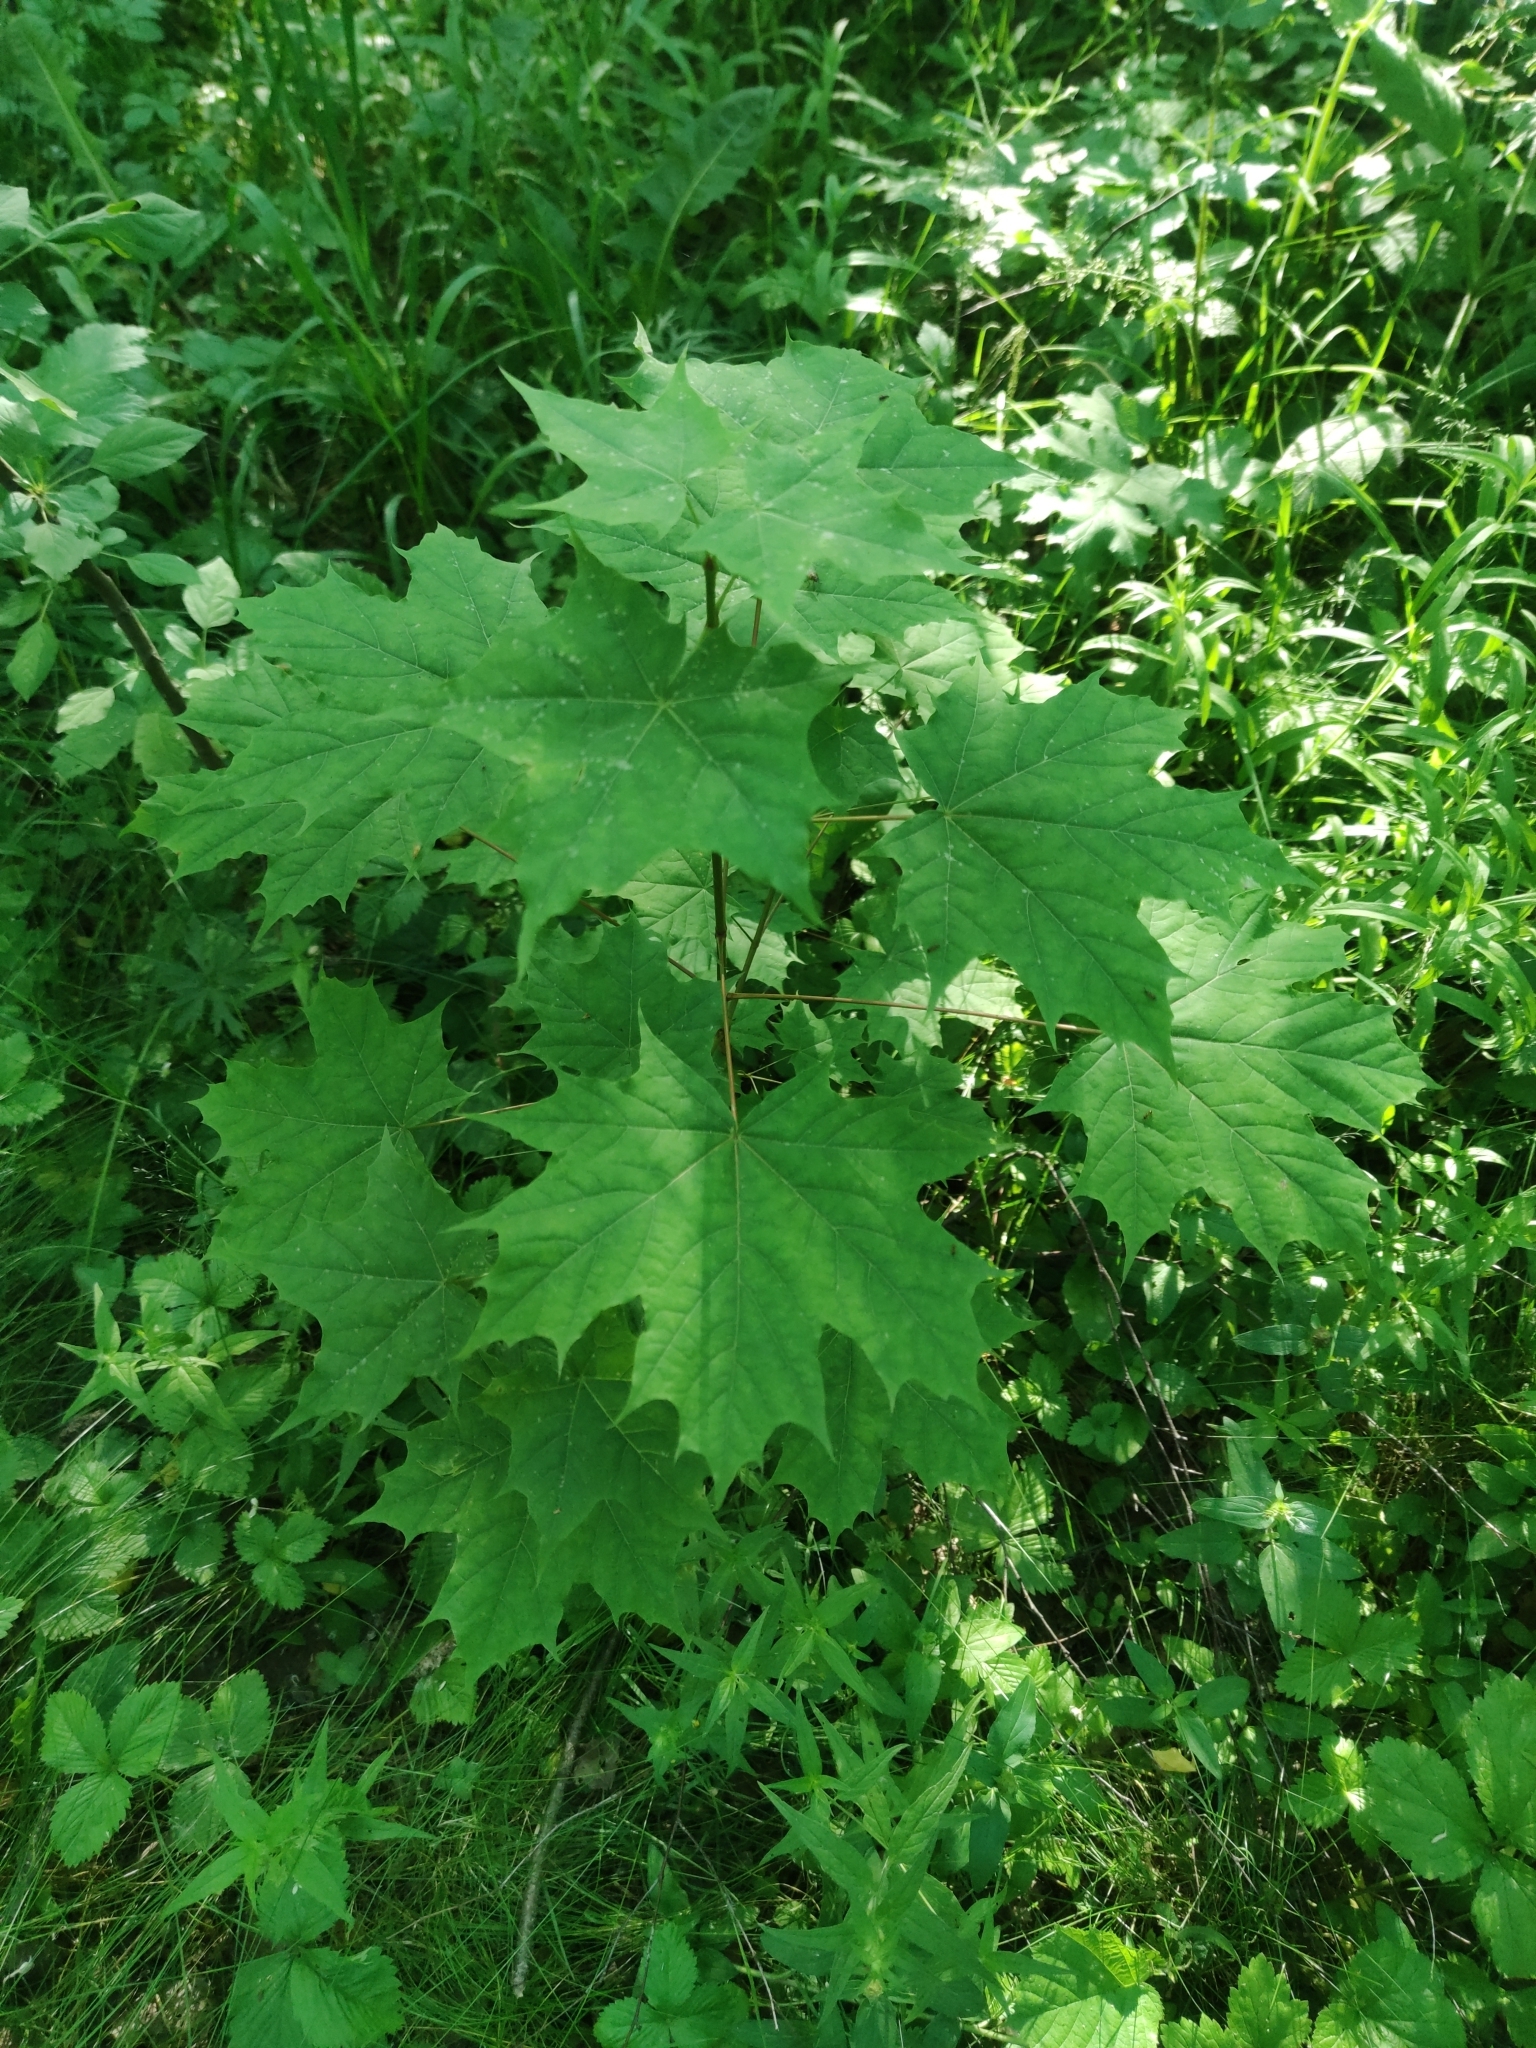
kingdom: Plantae
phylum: Tracheophyta
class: Magnoliopsida
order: Sapindales
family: Sapindaceae
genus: Acer
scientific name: Acer platanoides
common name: Norway maple
